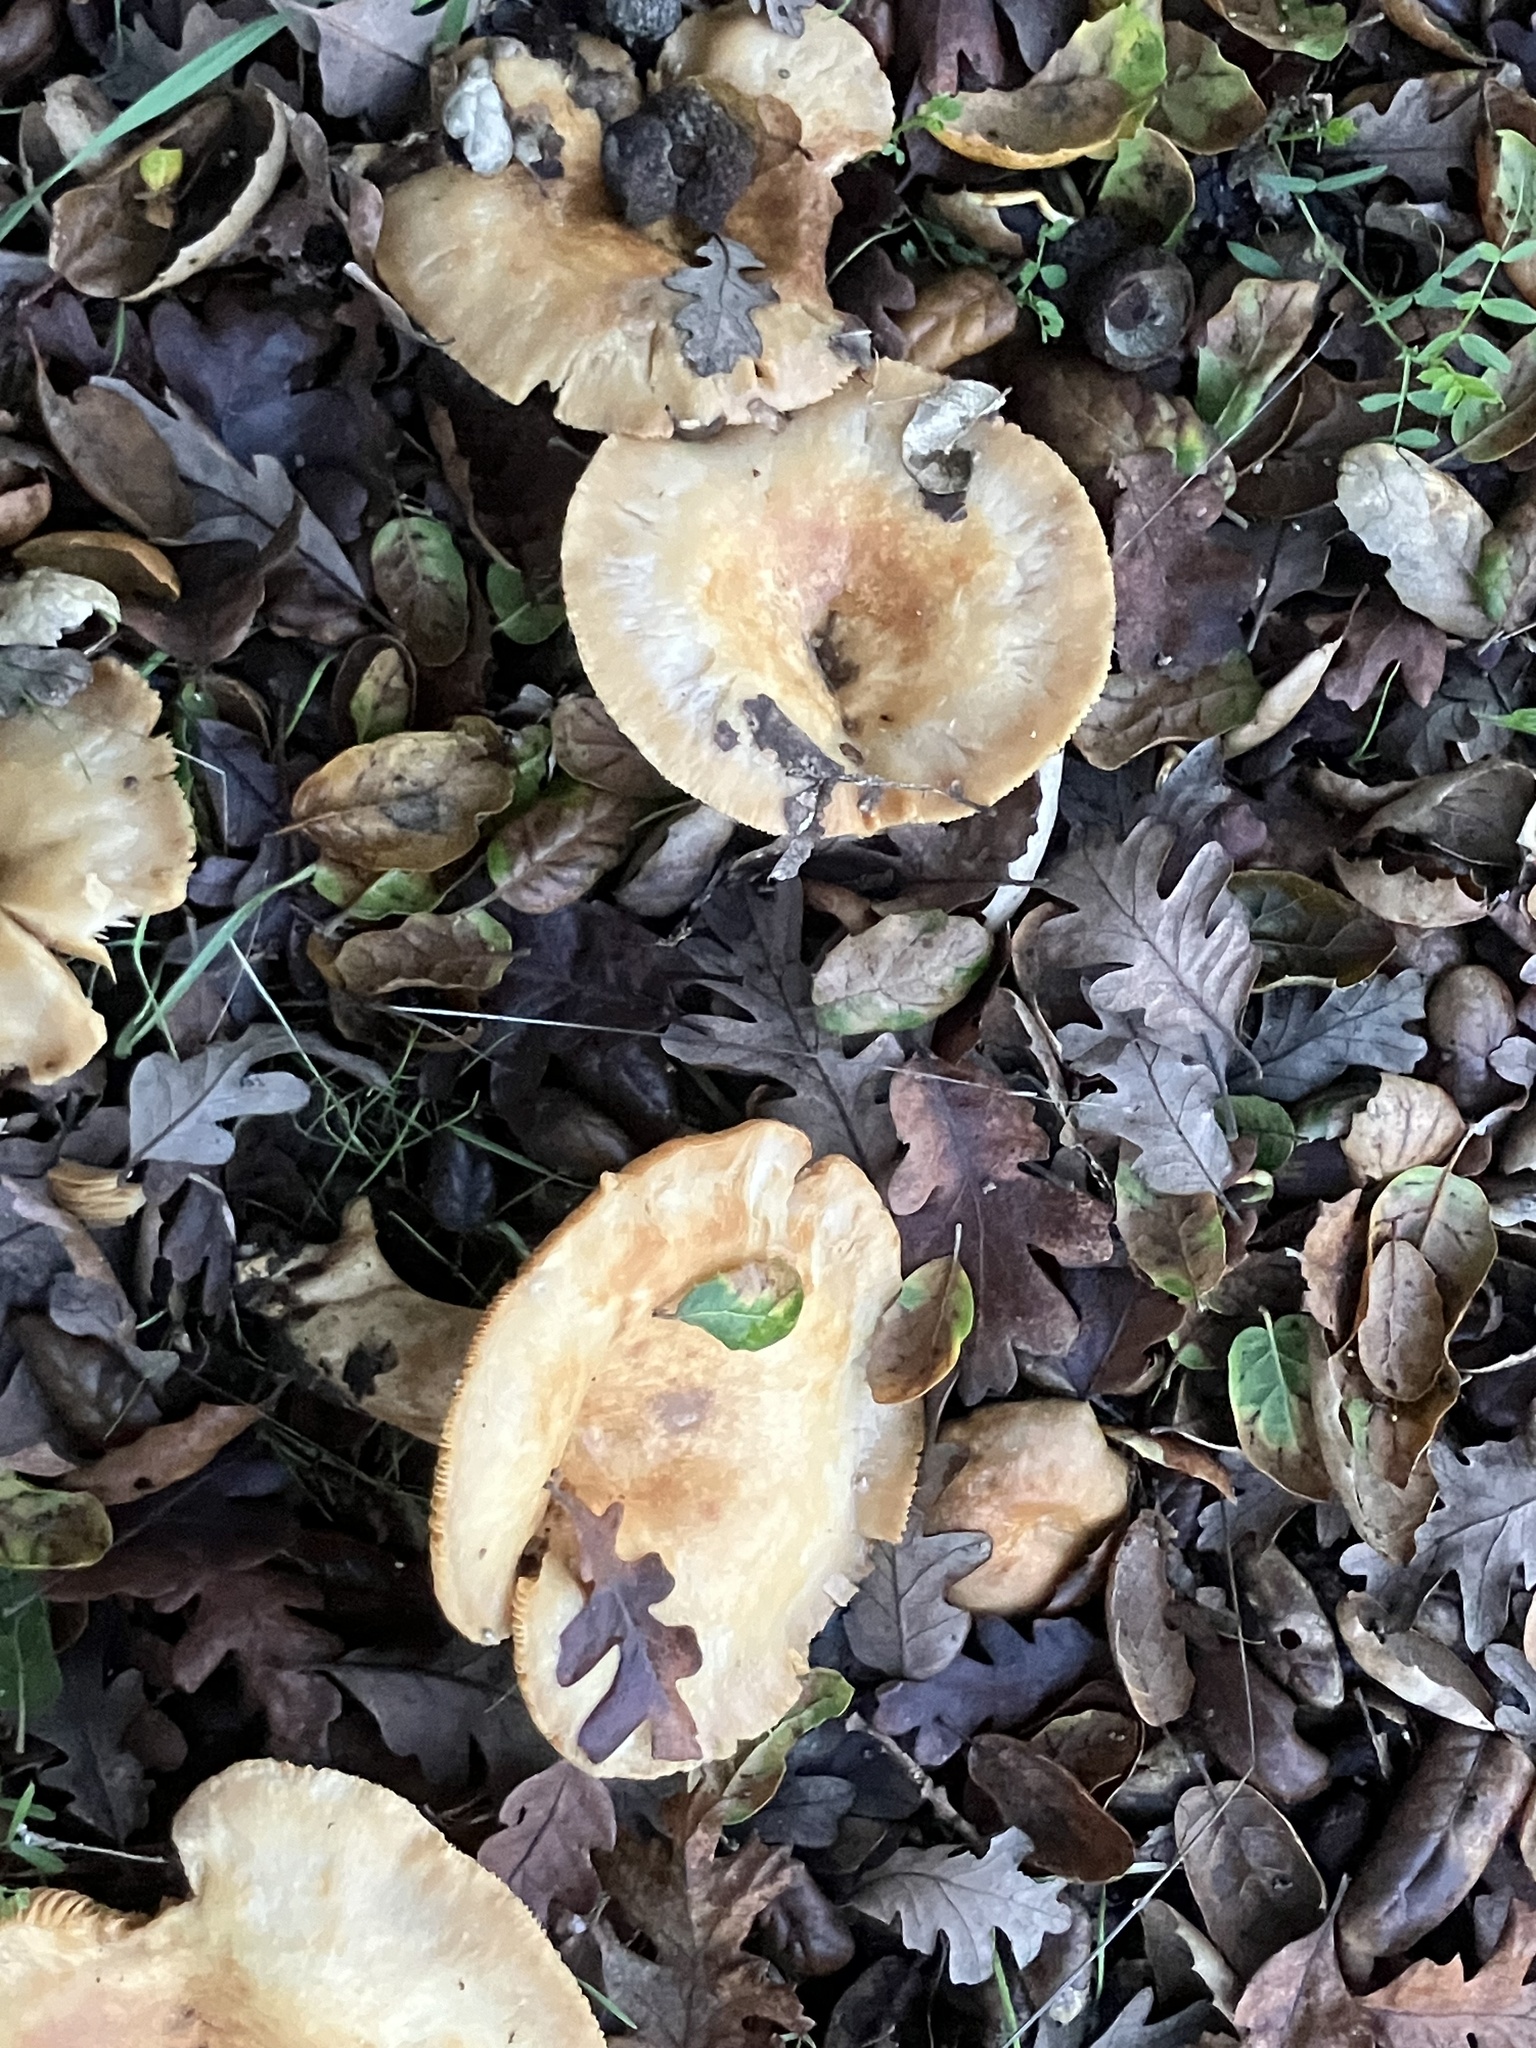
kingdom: Fungi
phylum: Basidiomycota
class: Agaricomycetes
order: Russulales
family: Russulaceae
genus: Lactarius
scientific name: Lactarius alnicola
